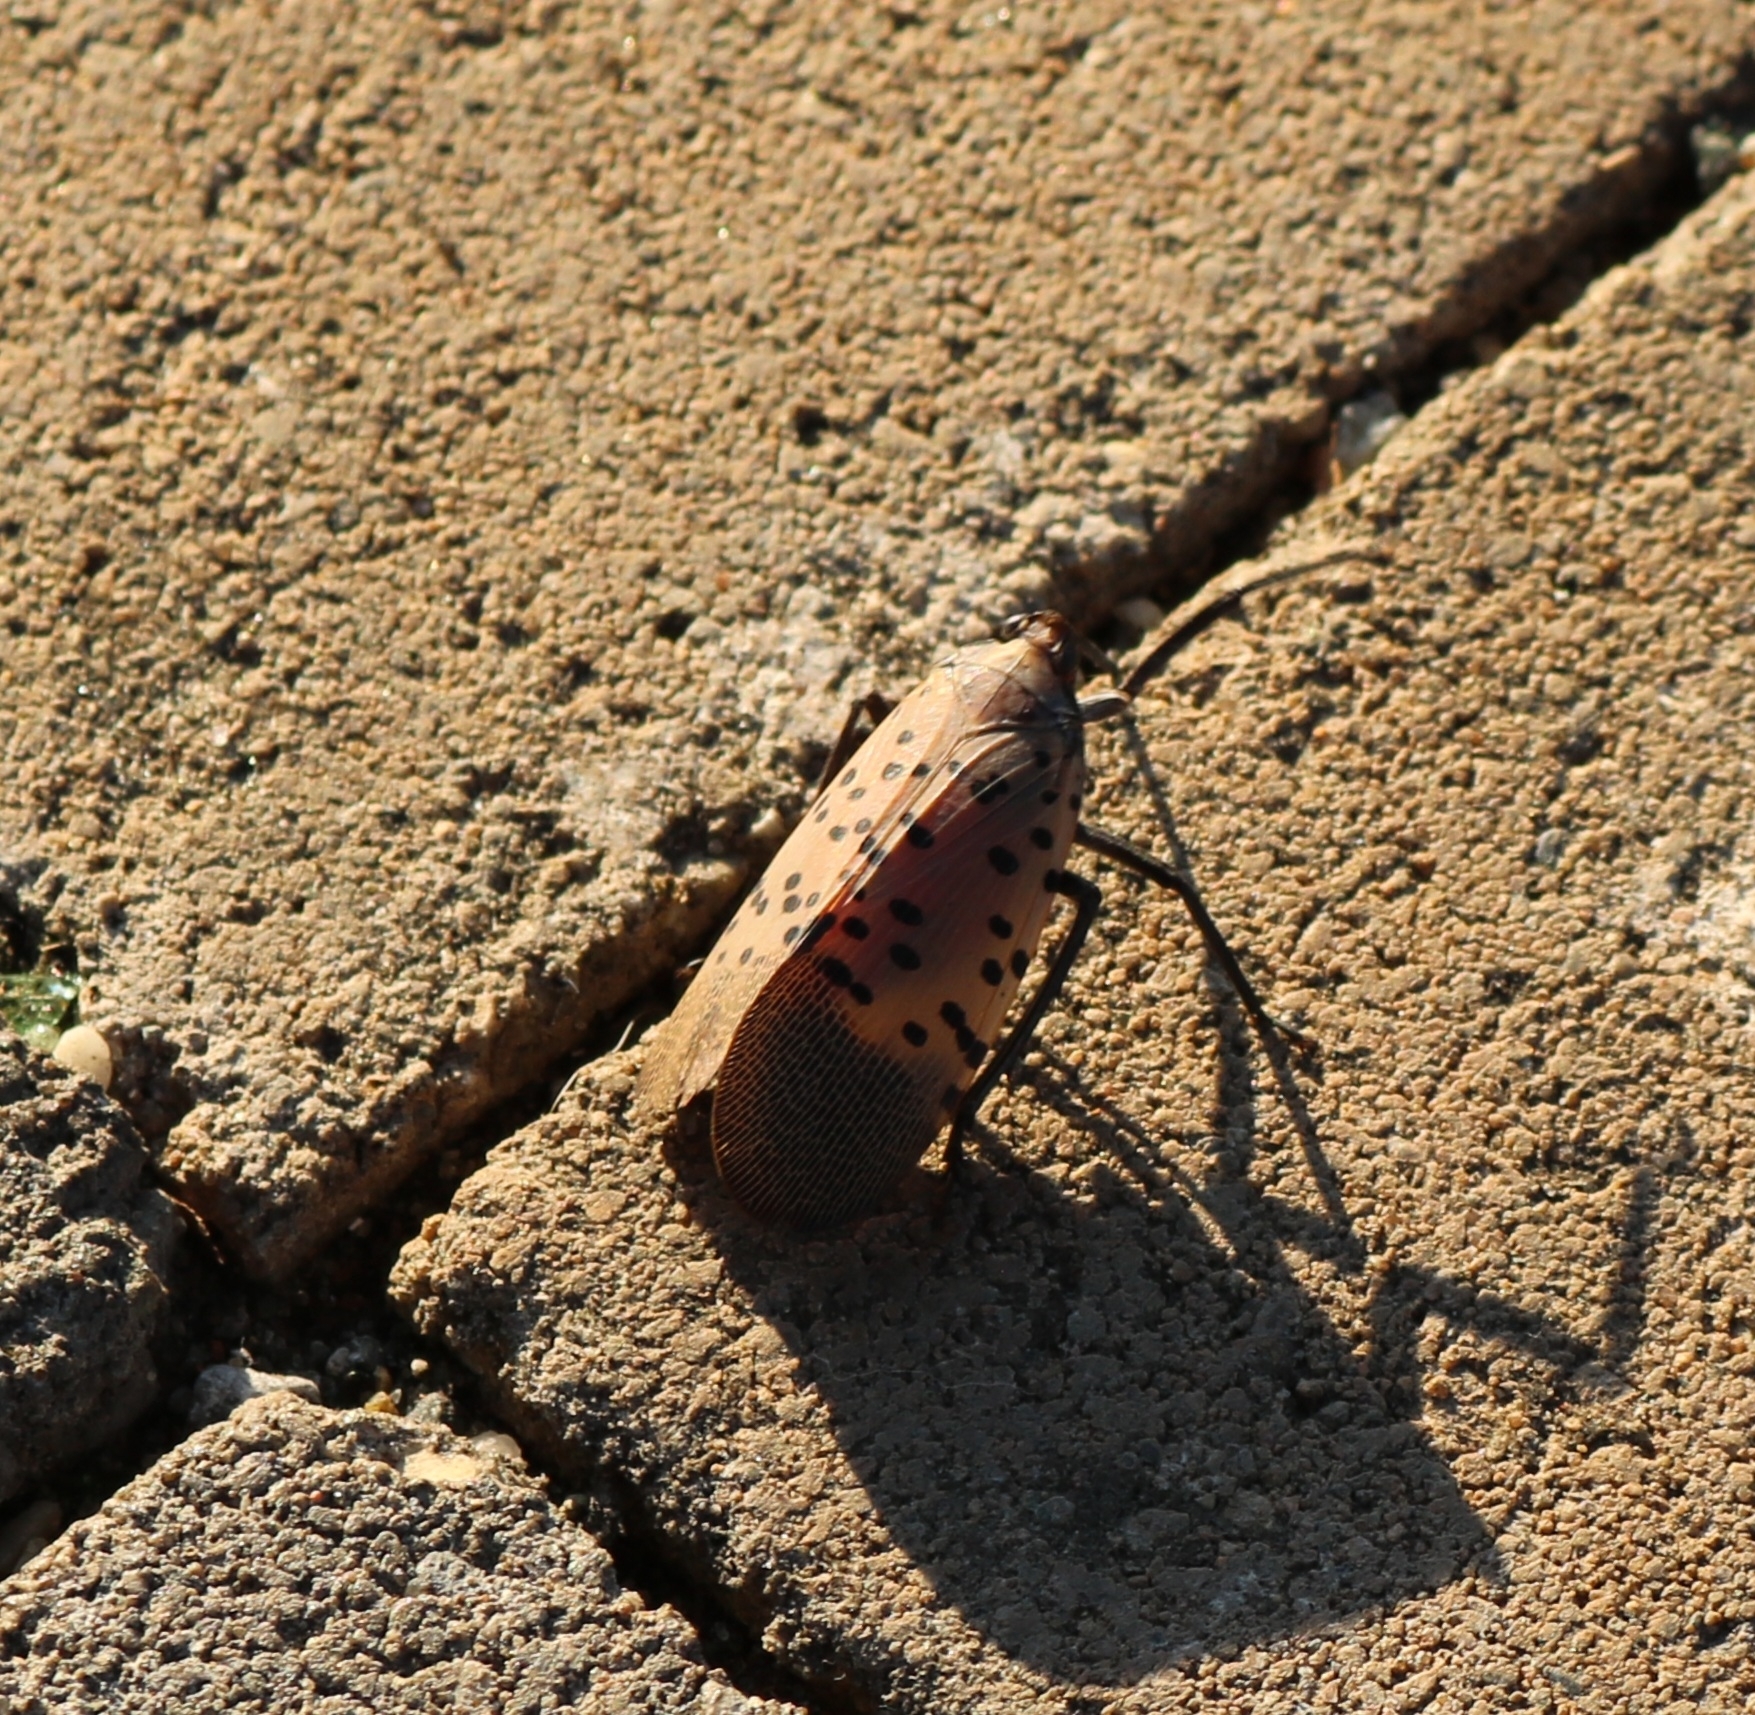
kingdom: Animalia
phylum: Arthropoda
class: Insecta
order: Hemiptera
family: Fulgoridae
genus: Lycorma
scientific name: Lycorma delicatula
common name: Spotted lanternfly
